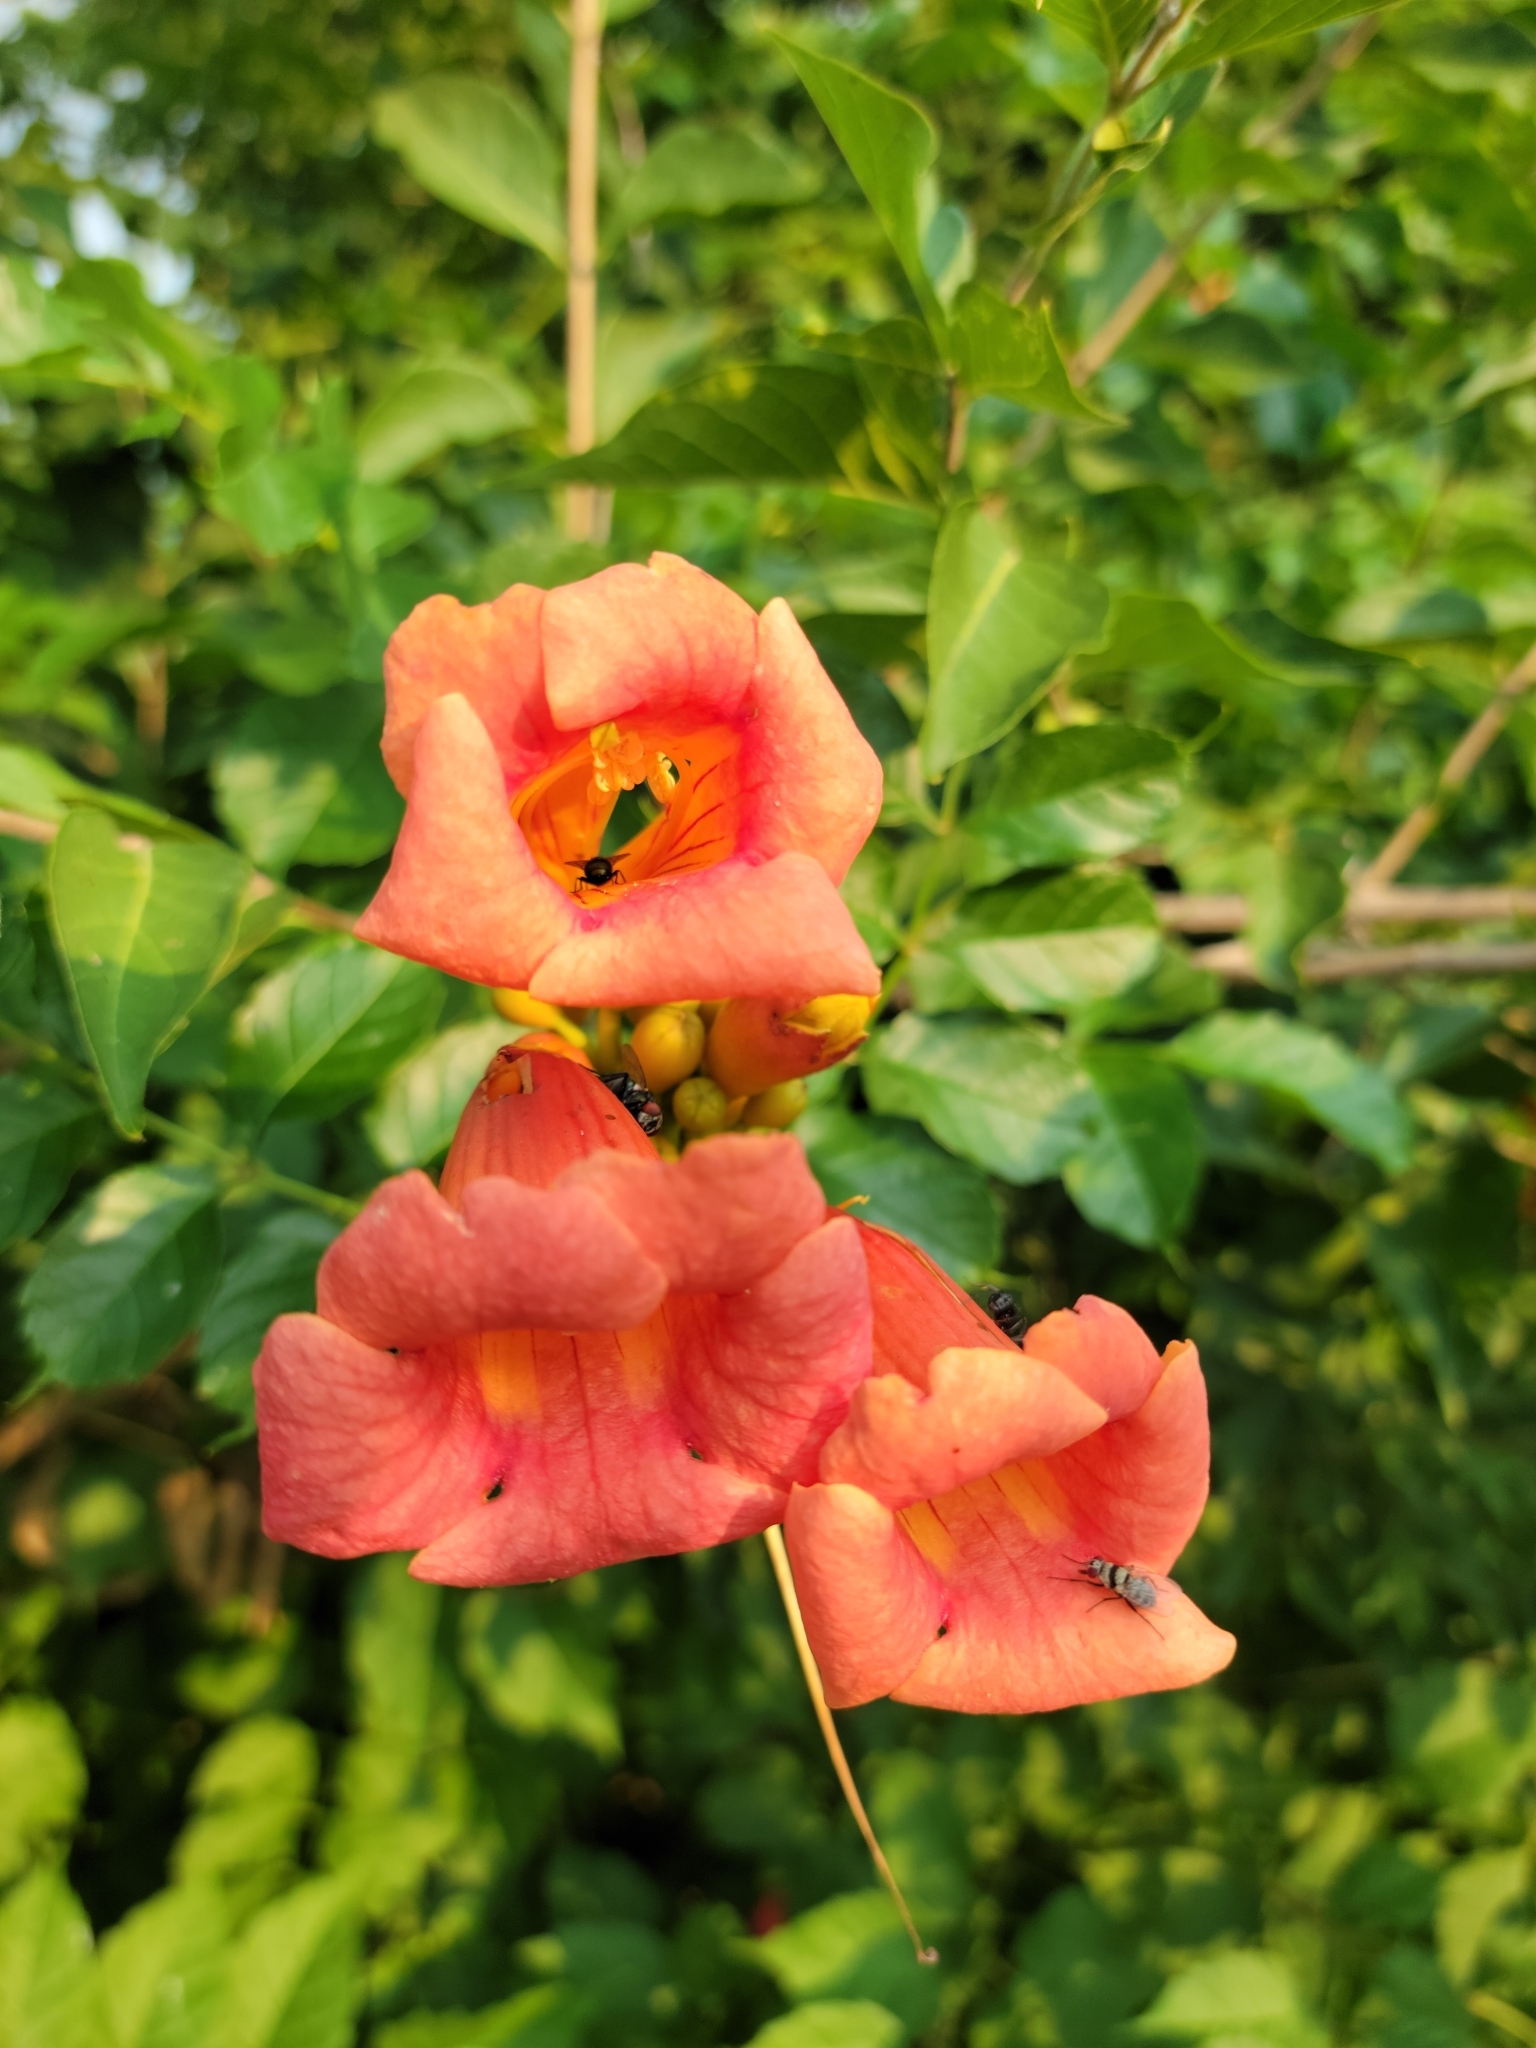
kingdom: Plantae
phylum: Tracheophyta
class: Magnoliopsida
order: Lamiales
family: Bignoniaceae
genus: Campsis
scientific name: Campsis radicans
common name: Trumpet-creeper
